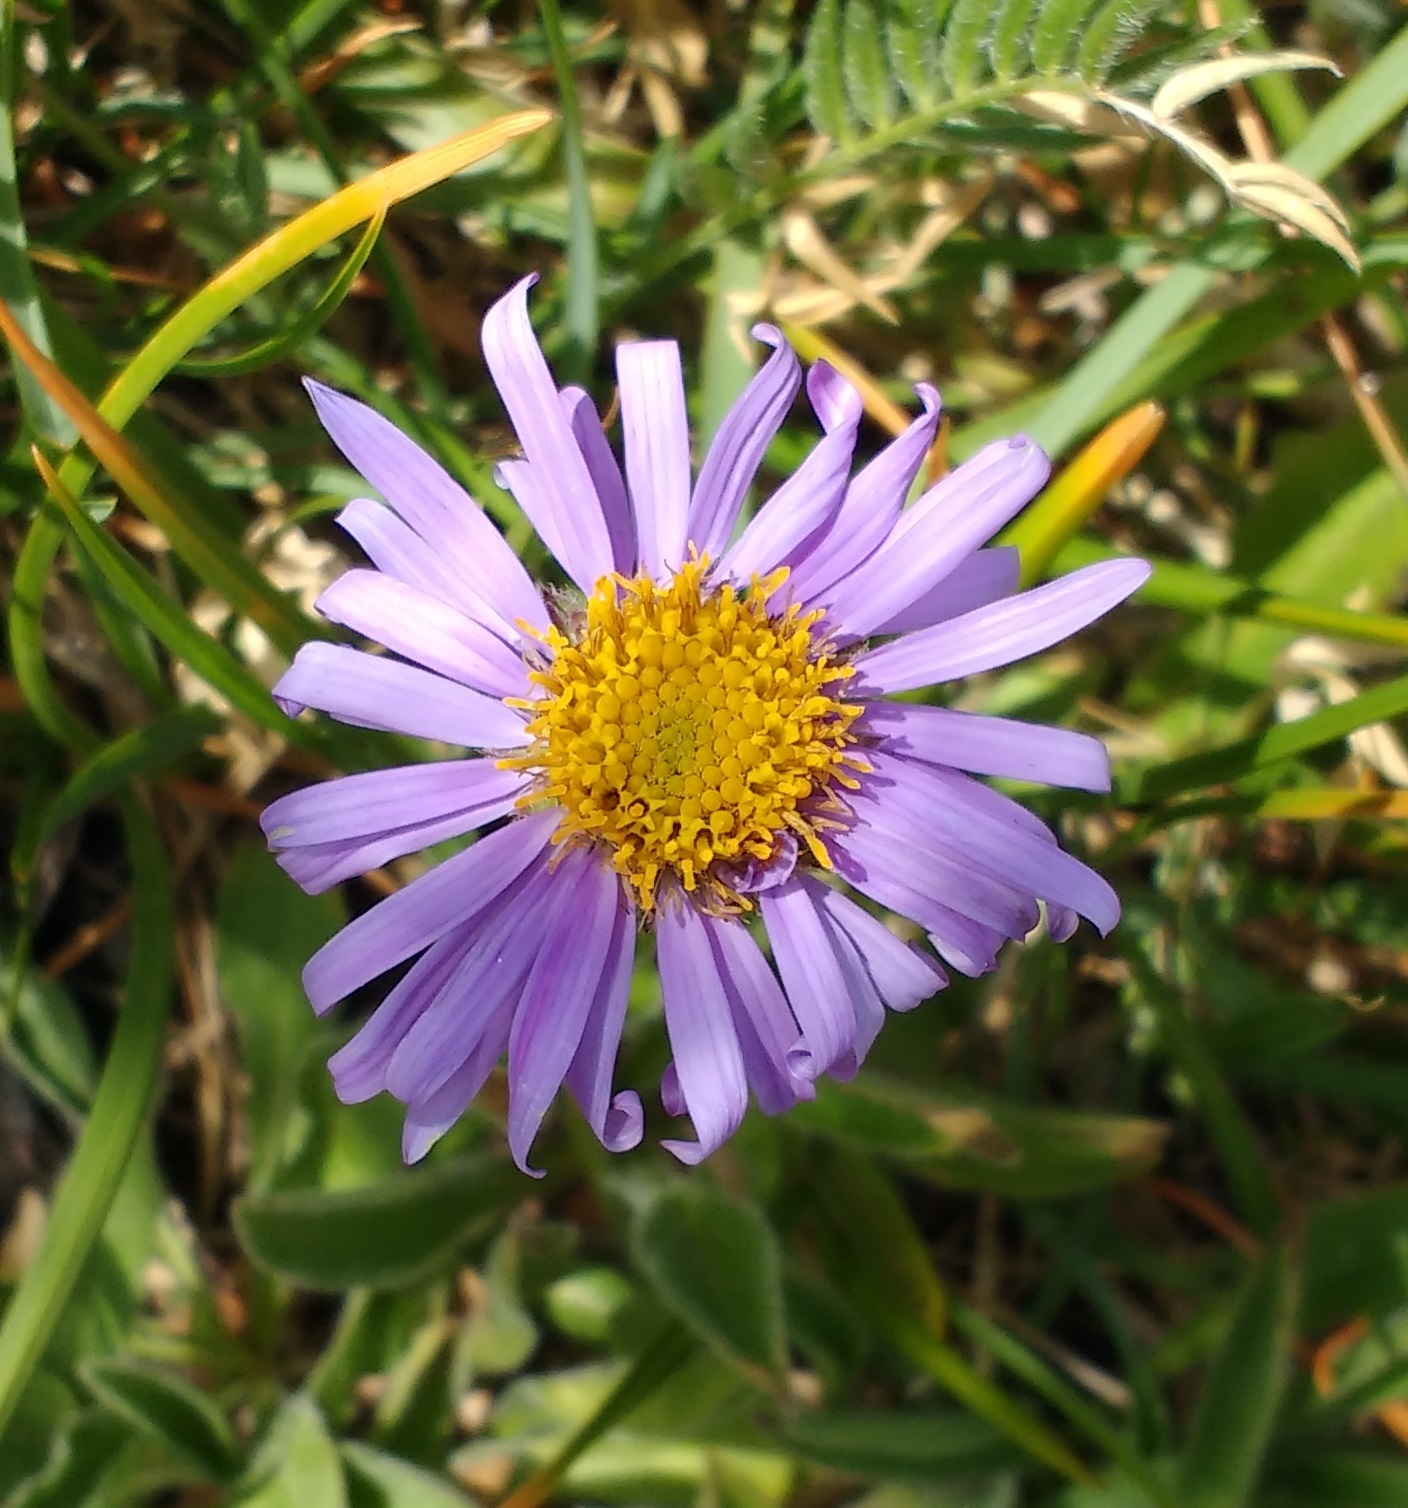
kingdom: Plantae
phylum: Tracheophyta
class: Magnoliopsida
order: Asterales
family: Asteraceae
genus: Aster
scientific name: Aster alpinus
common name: Alpine aster
